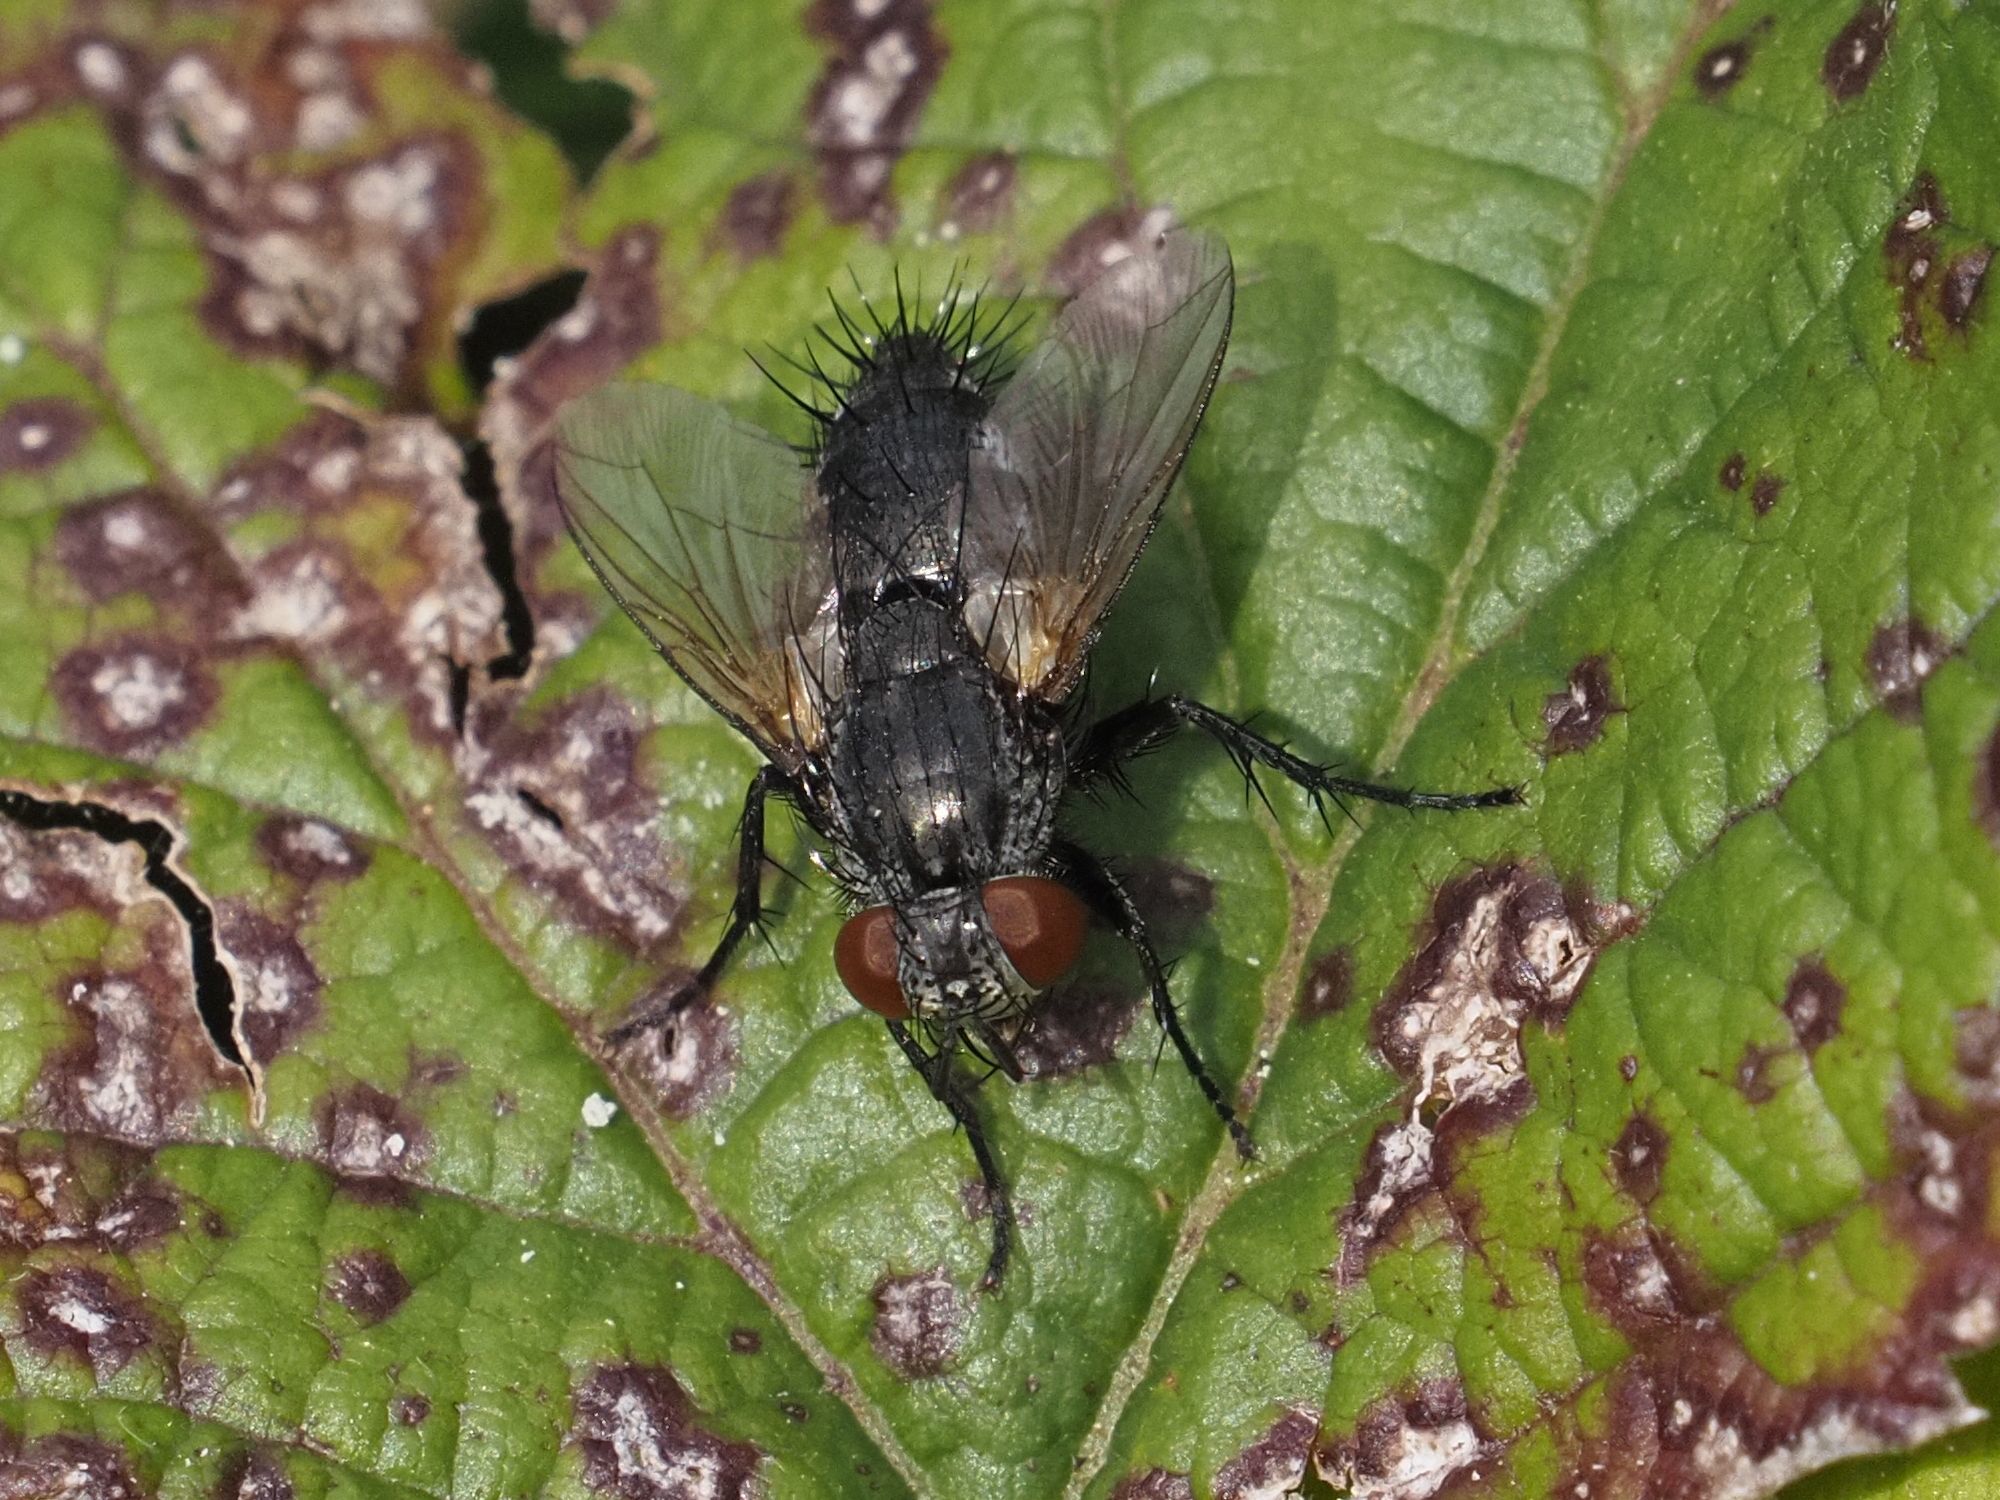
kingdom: Animalia
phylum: Arthropoda
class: Insecta
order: Diptera
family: Tachinidae
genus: Voria
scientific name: Voria ruralis
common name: Parasitic fly
